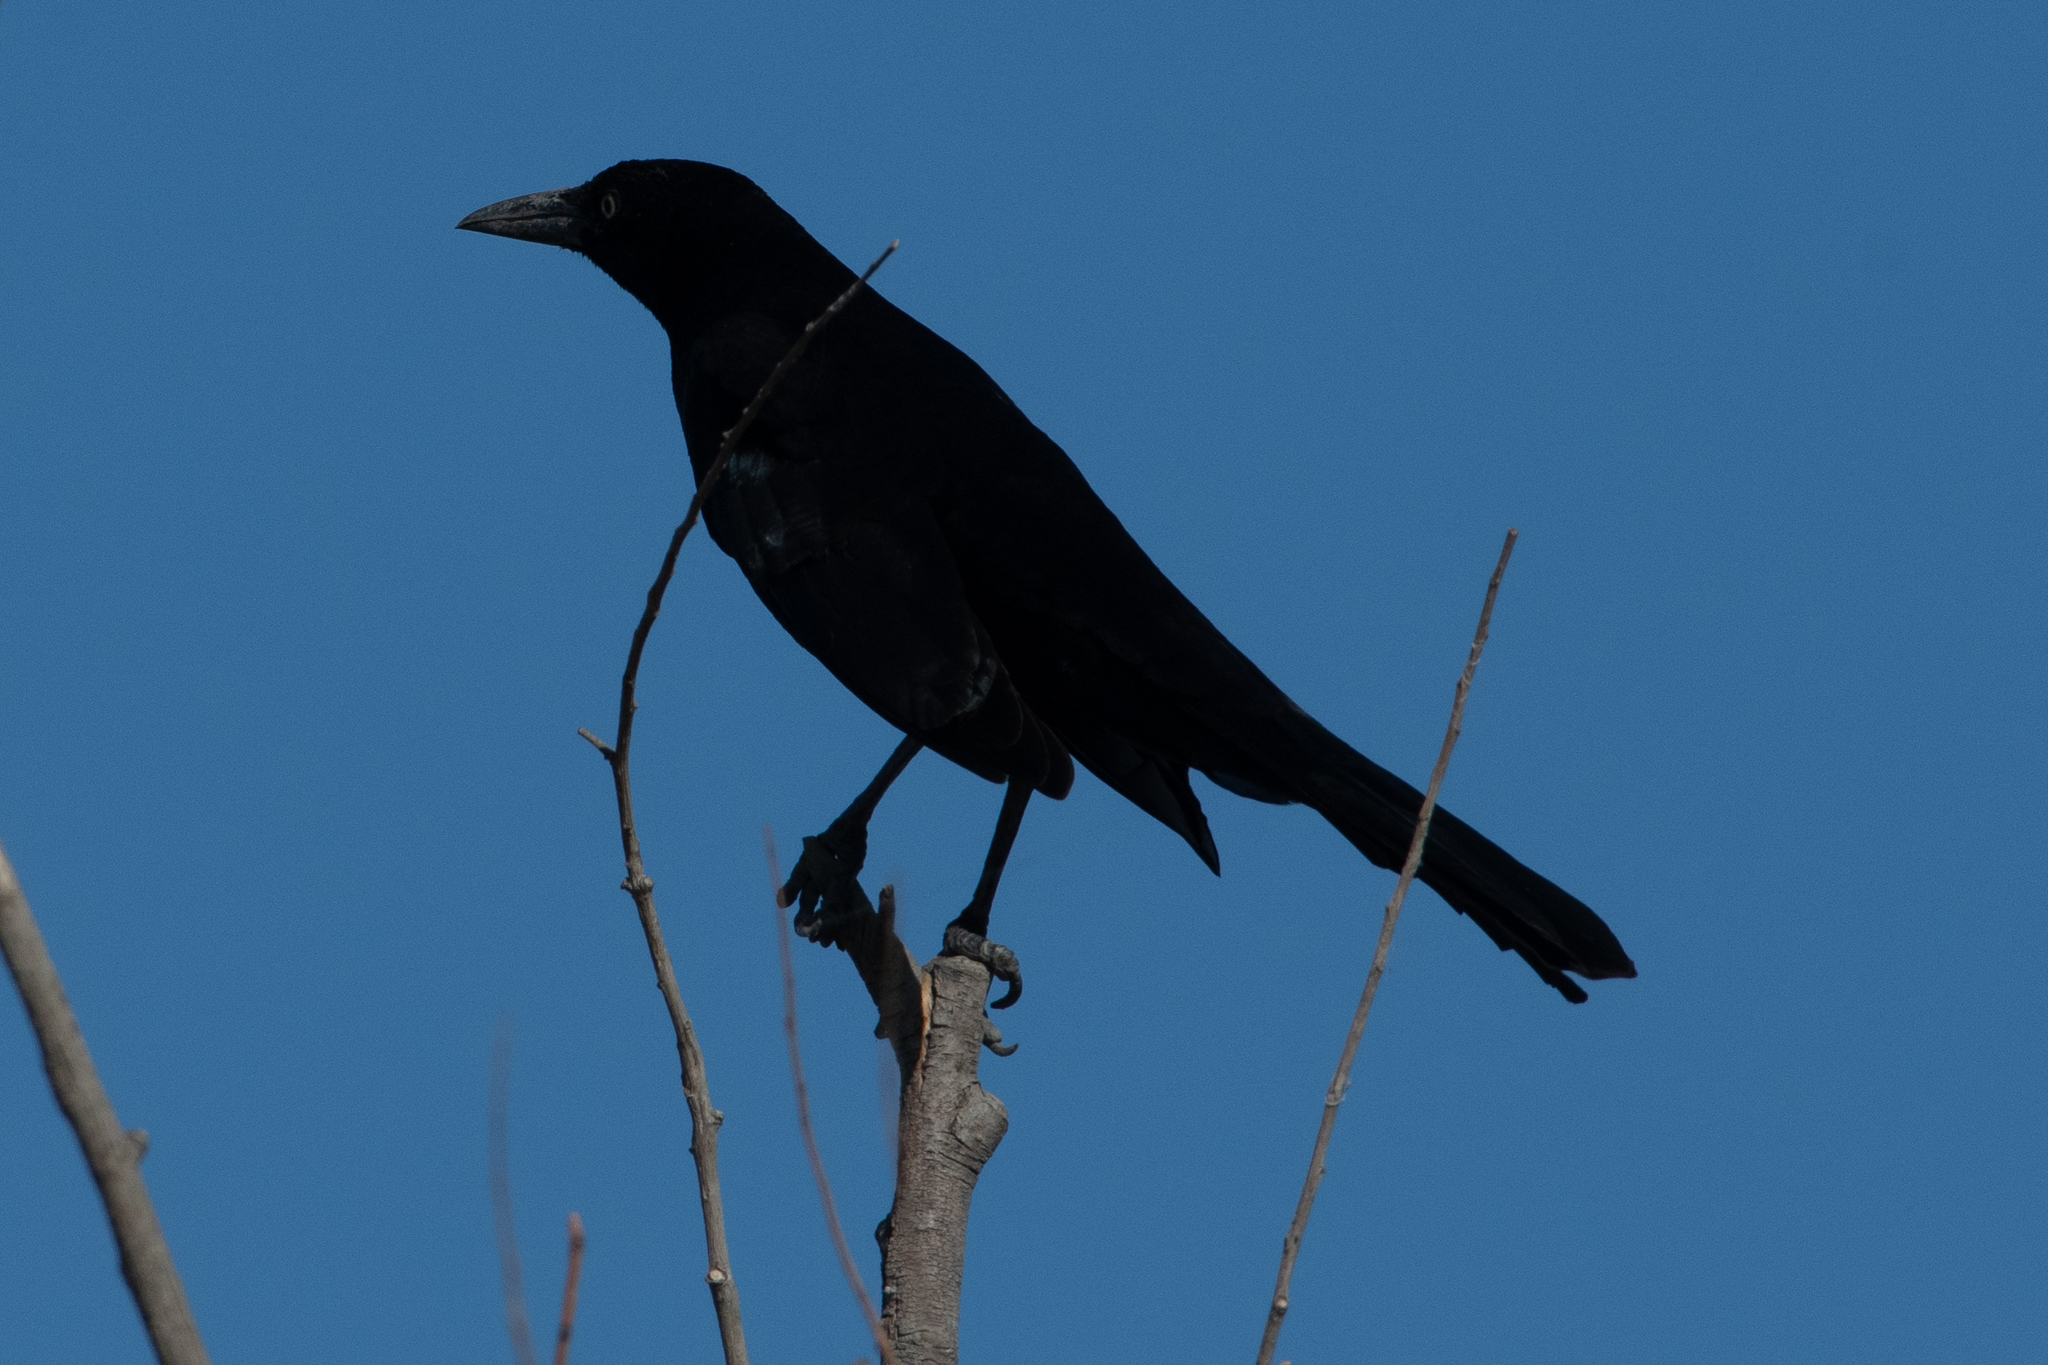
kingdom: Animalia
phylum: Chordata
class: Aves
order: Passeriformes
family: Icteridae
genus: Quiscalus
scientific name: Quiscalus mexicanus
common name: Great-tailed grackle
